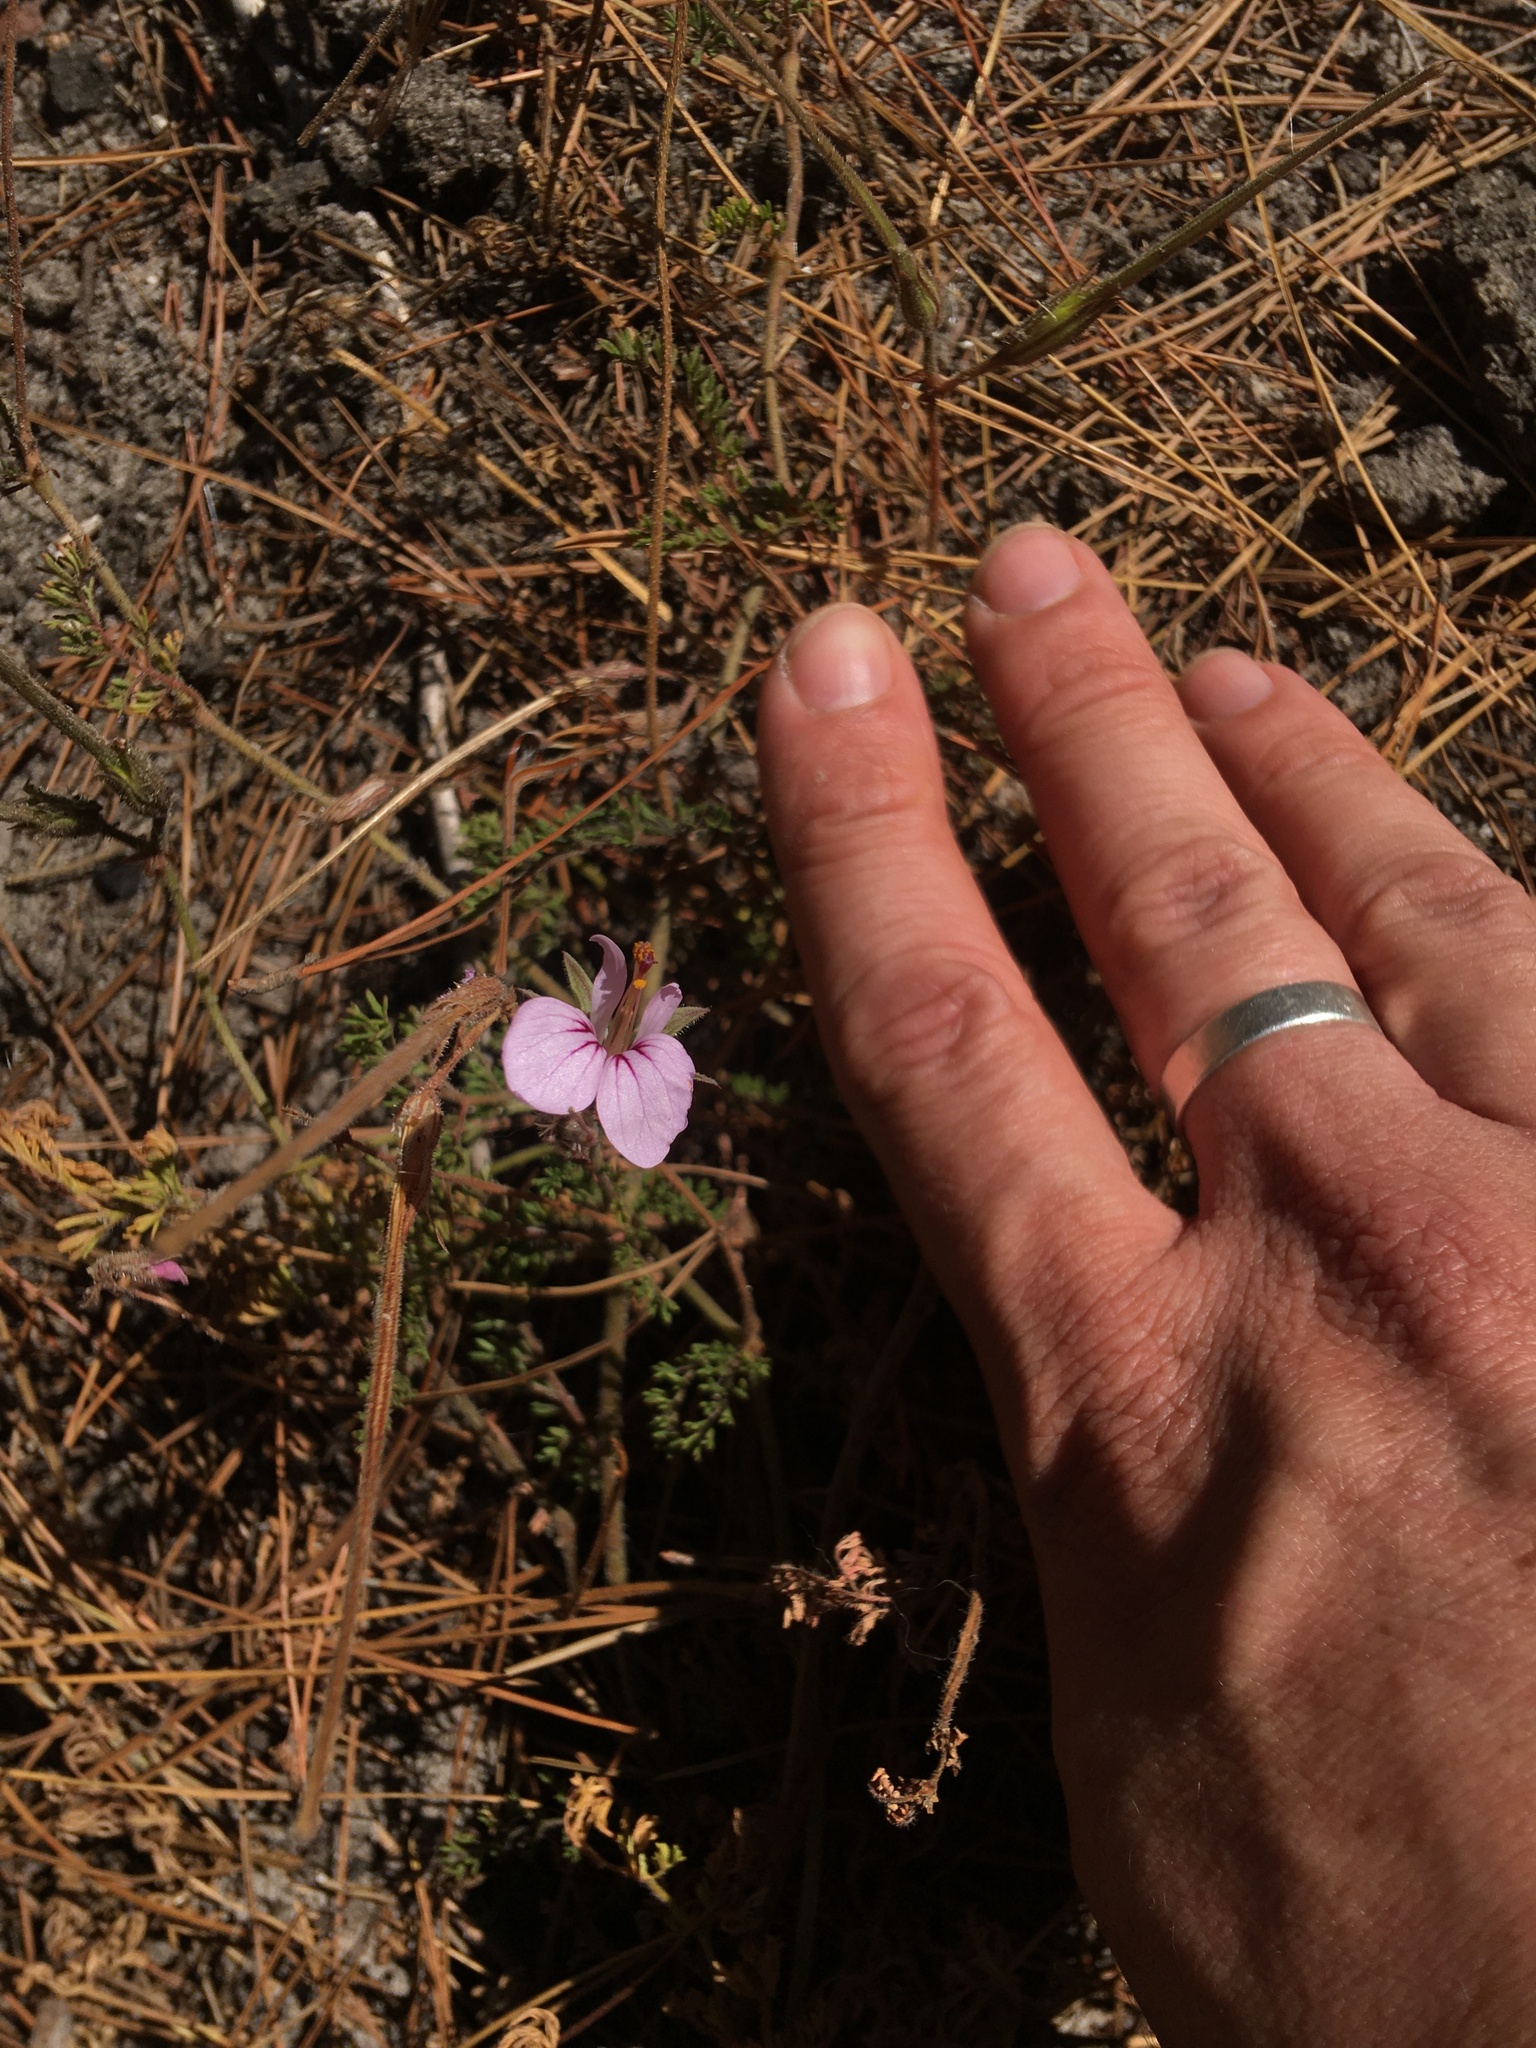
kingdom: Plantae
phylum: Tracheophyta
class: Magnoliopsida
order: Geraniales
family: Geraniaceae
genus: Pelargonium
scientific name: Pelargonium myrrhifolium
